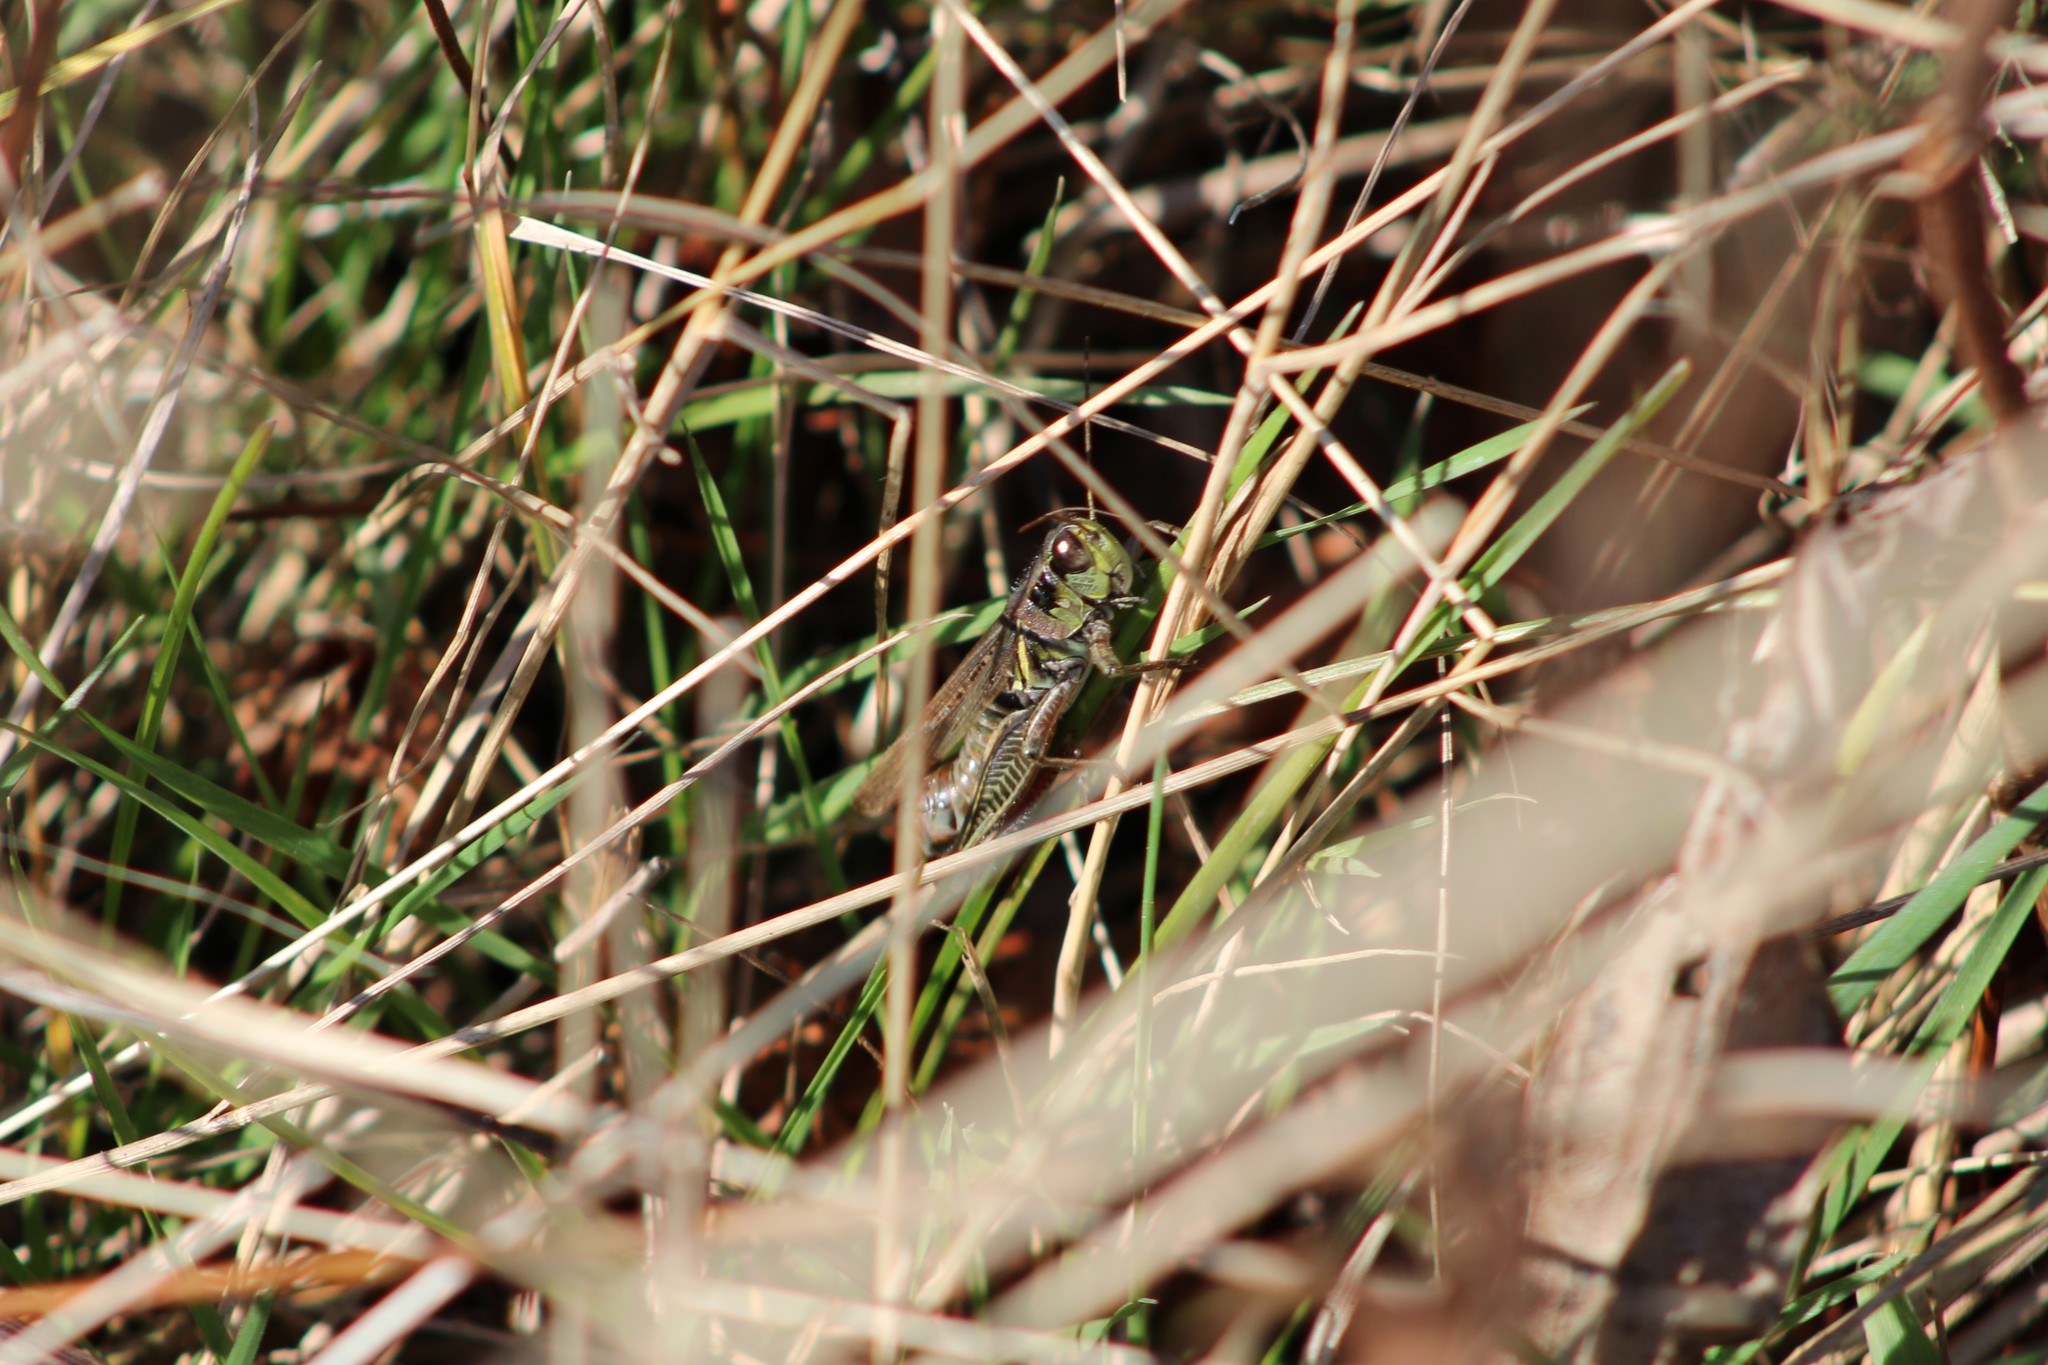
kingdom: Animalia
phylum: Arthropoda
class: Insecta
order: Orthoptera
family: Acrididae
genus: Melanoplus
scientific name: Melanoplus femurrubrum
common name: Red-legged grasshopper
